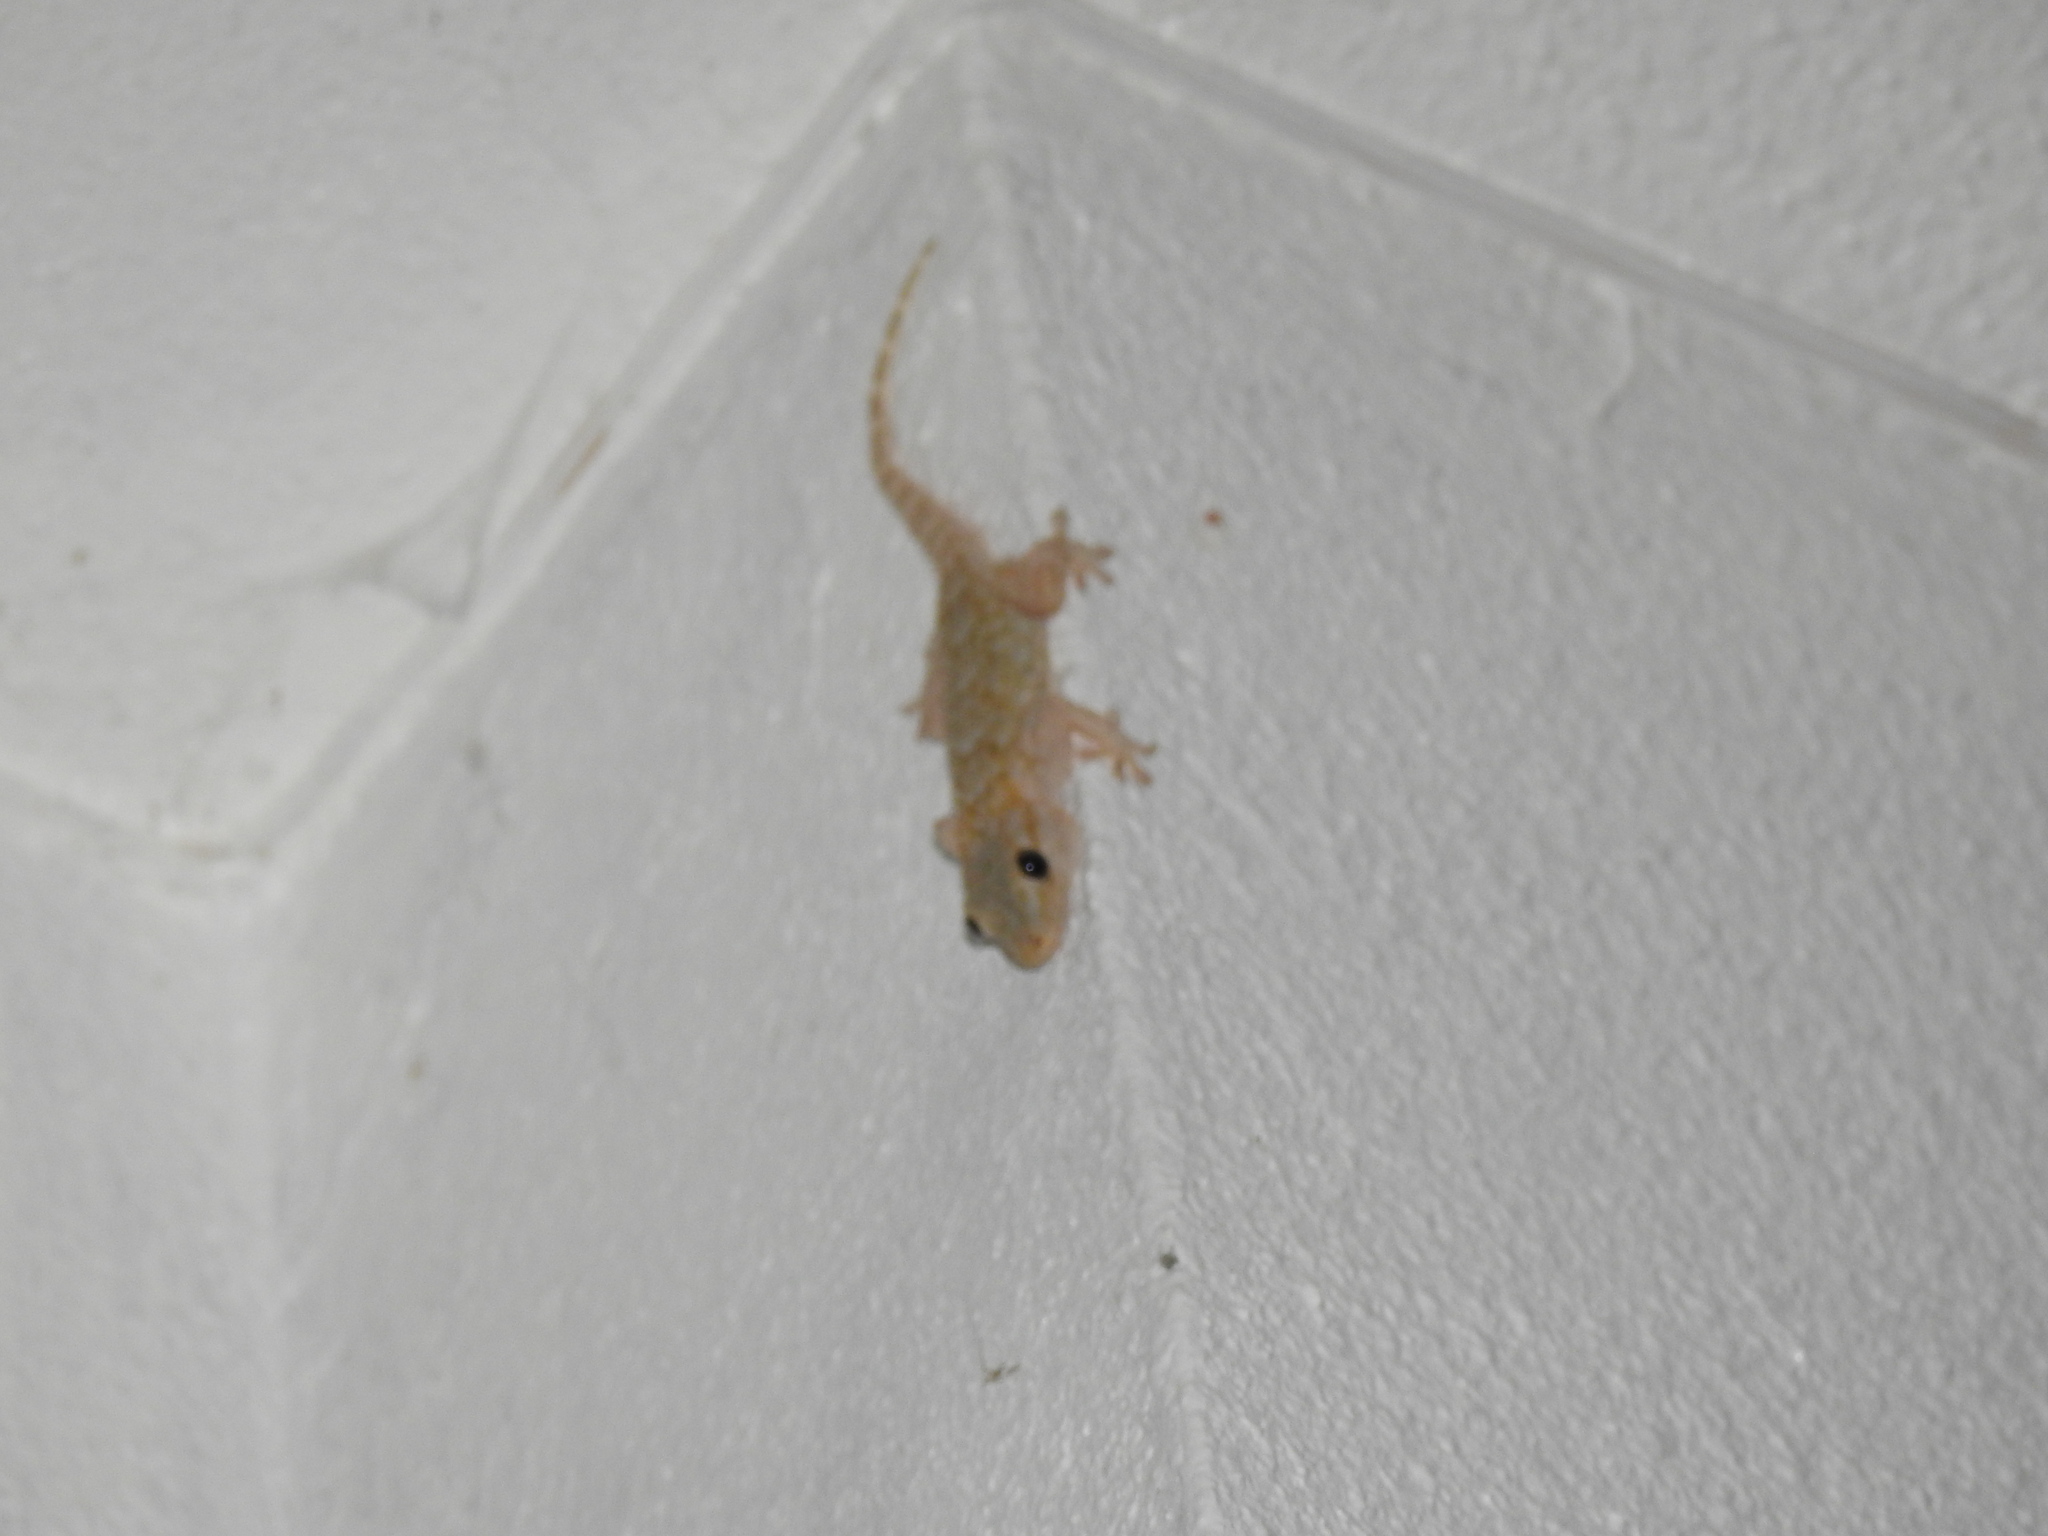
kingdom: Animalia
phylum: Chordata
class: Squamata
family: Phyllodactylidae
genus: Tarentola
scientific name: Tarentola mauritanica
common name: Moorish gecko
